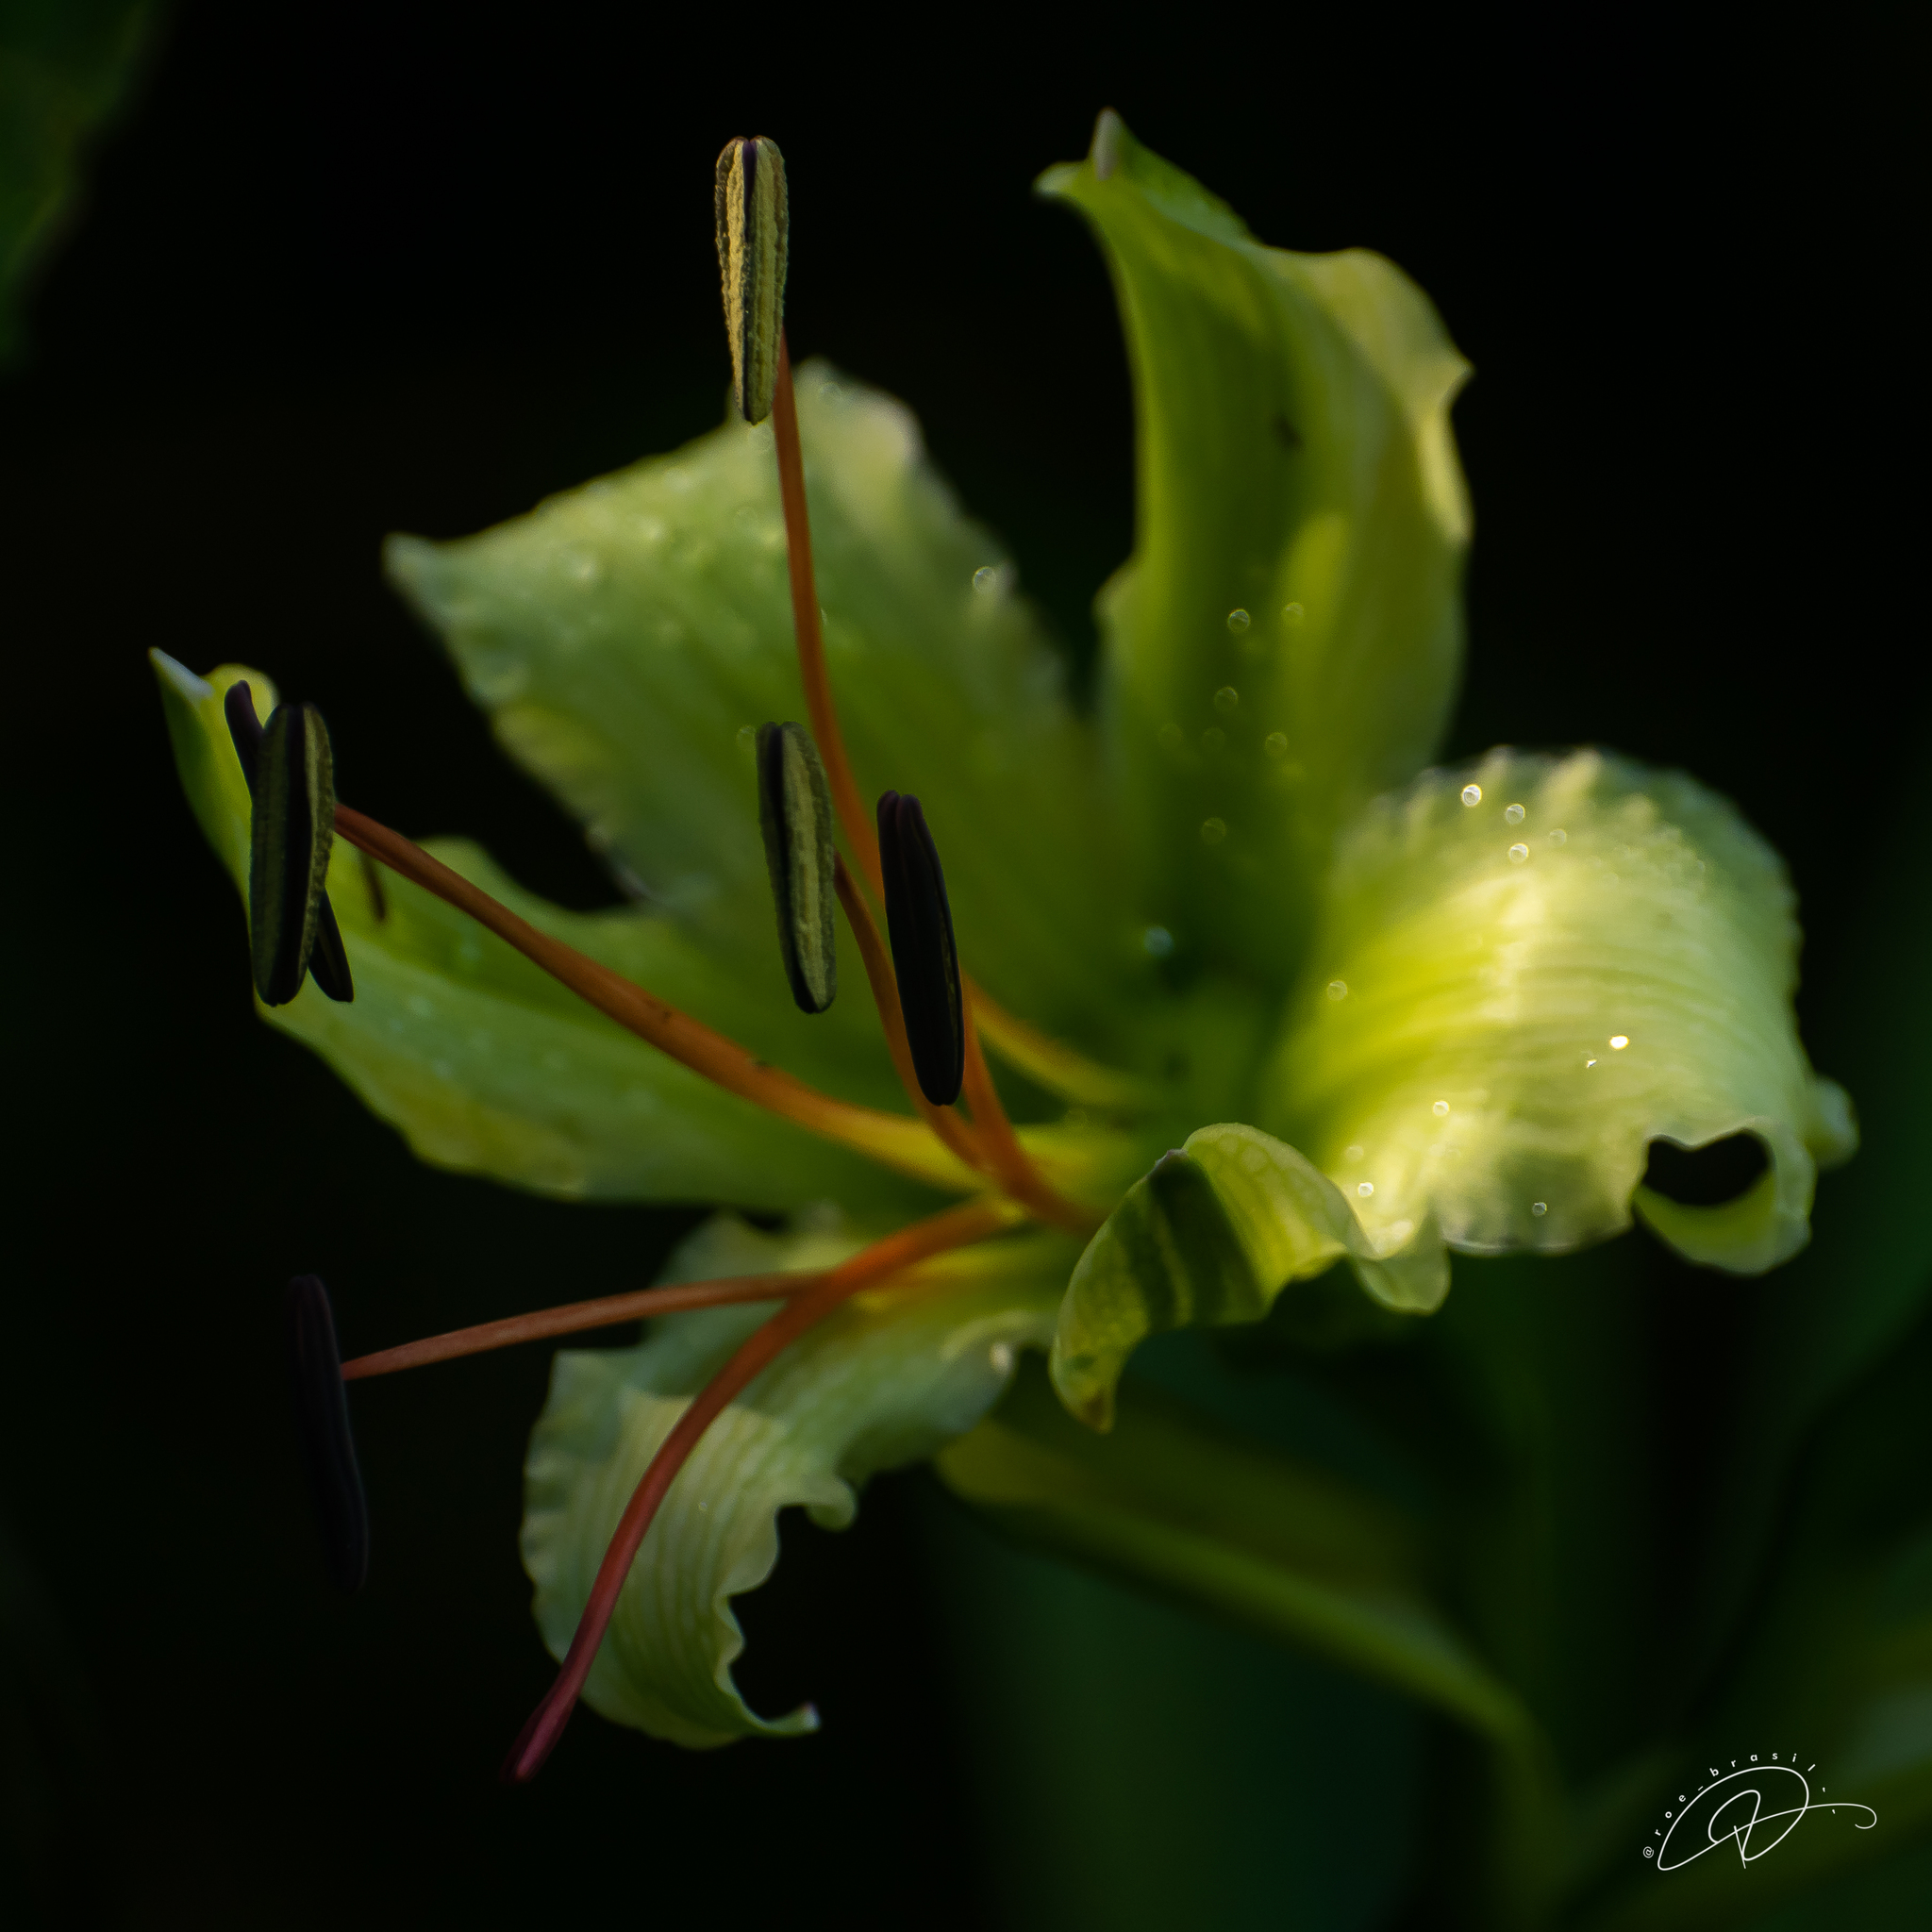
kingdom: Plantae
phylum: Tracheophyta
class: Liliopsida
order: Asparagales
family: Amaryllidaceae
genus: Hippeastrum
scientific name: Hippeastrum calyptratum
